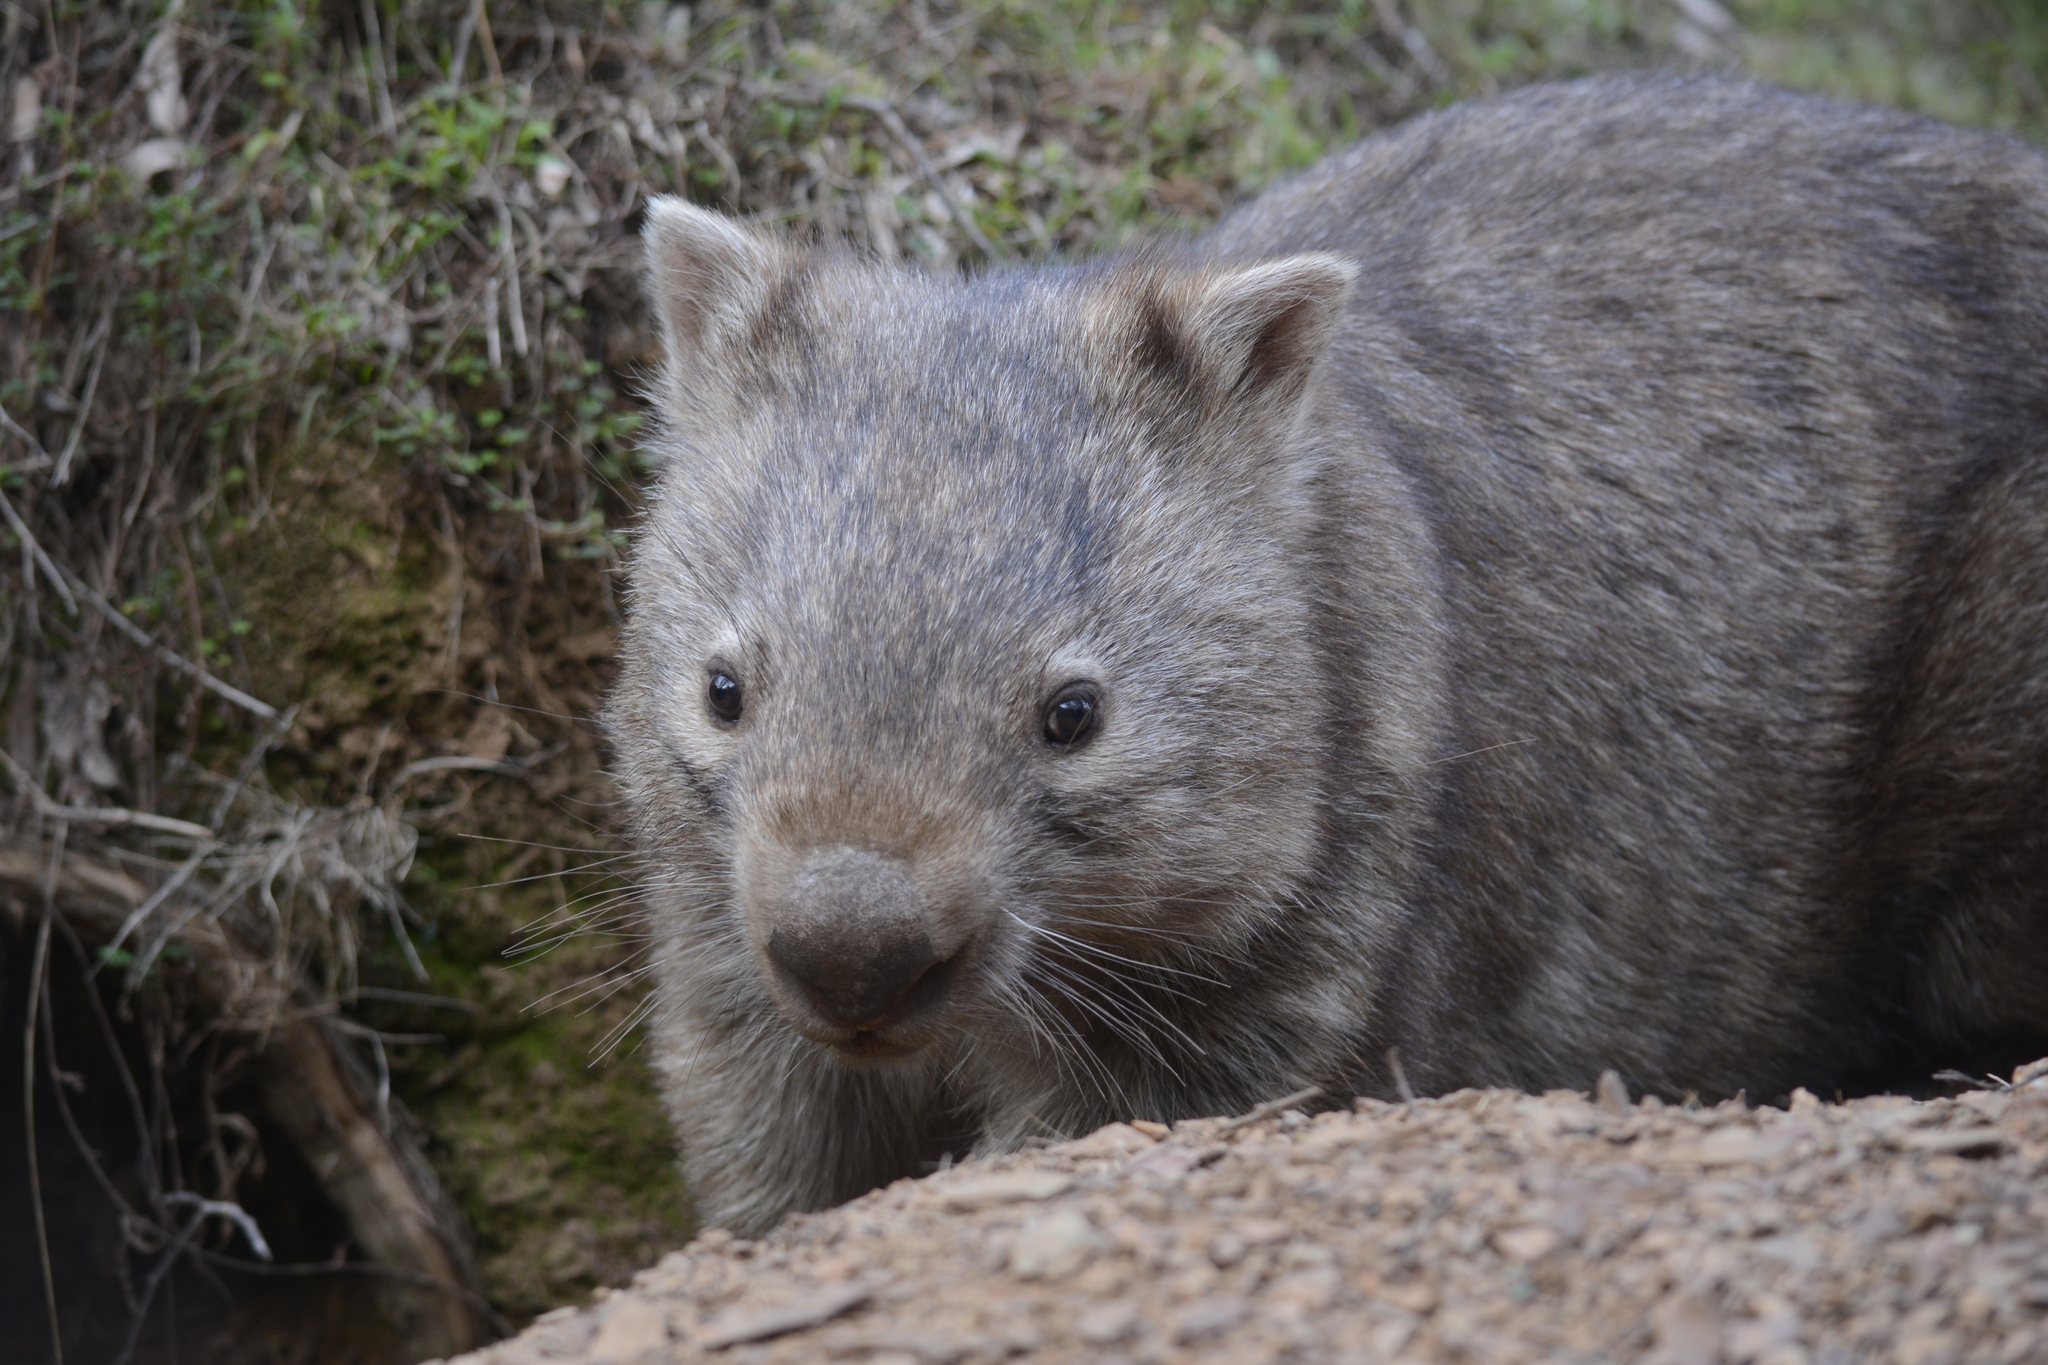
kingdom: Animalia
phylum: Chordata
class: Mammalia
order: Diprotodontia
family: Vombatidae
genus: Vombatus
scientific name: Vombatus ursinus
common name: Common wombat
